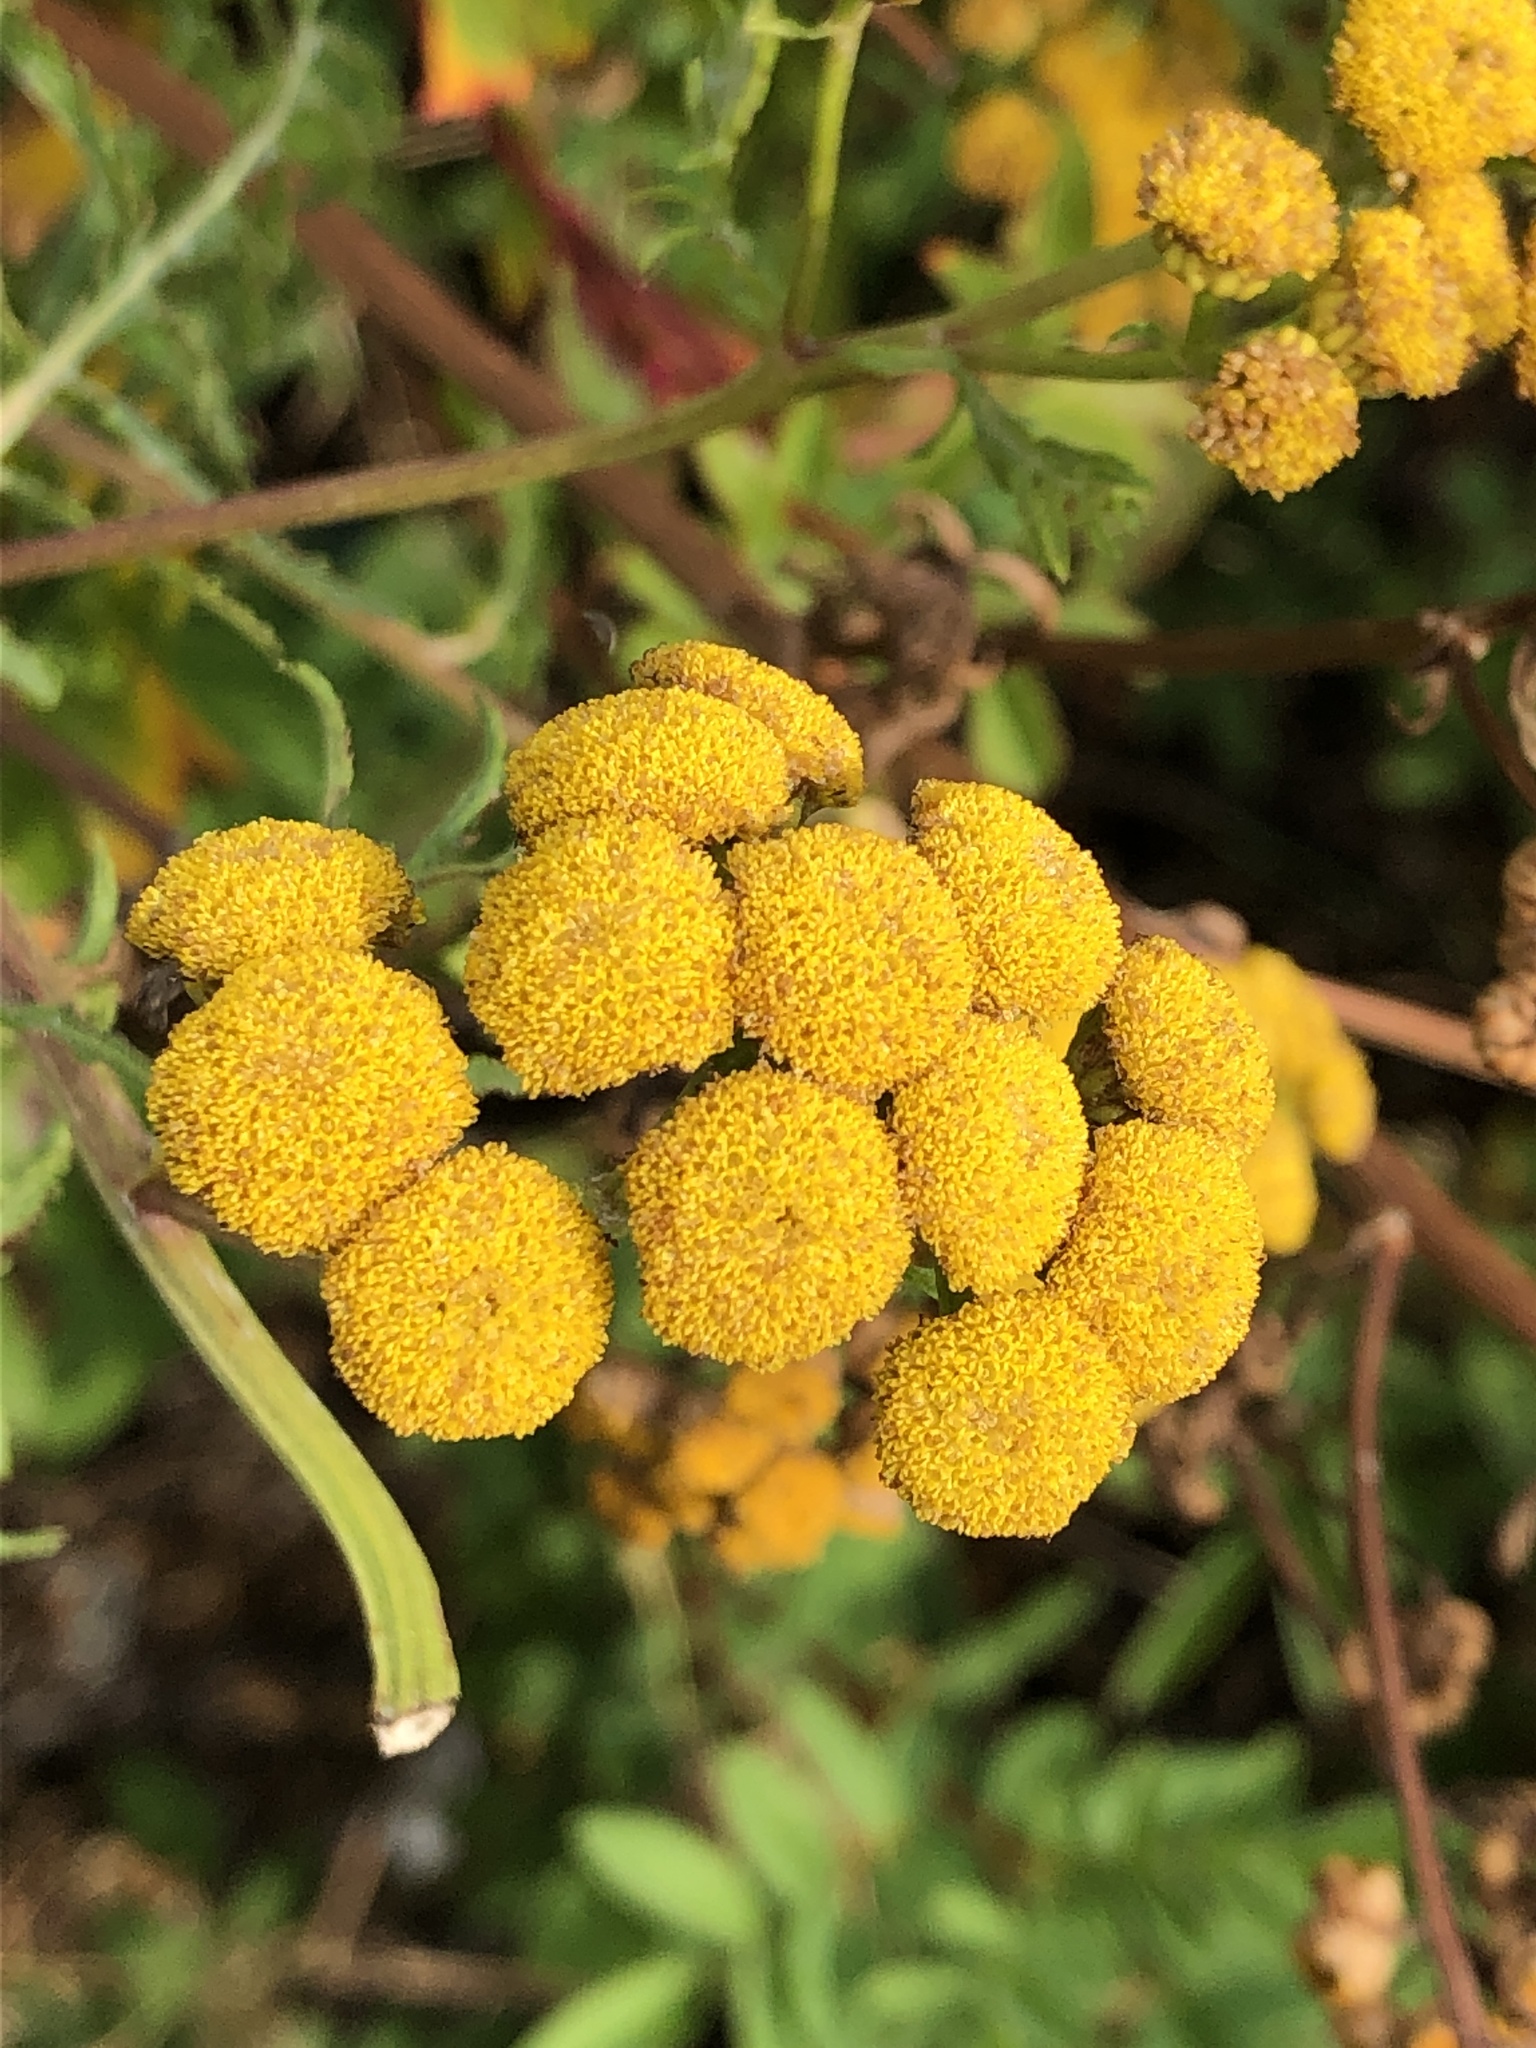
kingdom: Plantae
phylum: Tracheophyta
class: Magnoliopsida
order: Asterales
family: Asteraceae
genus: Tanacetum
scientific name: Tanacetum vulgare
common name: Common tansy
